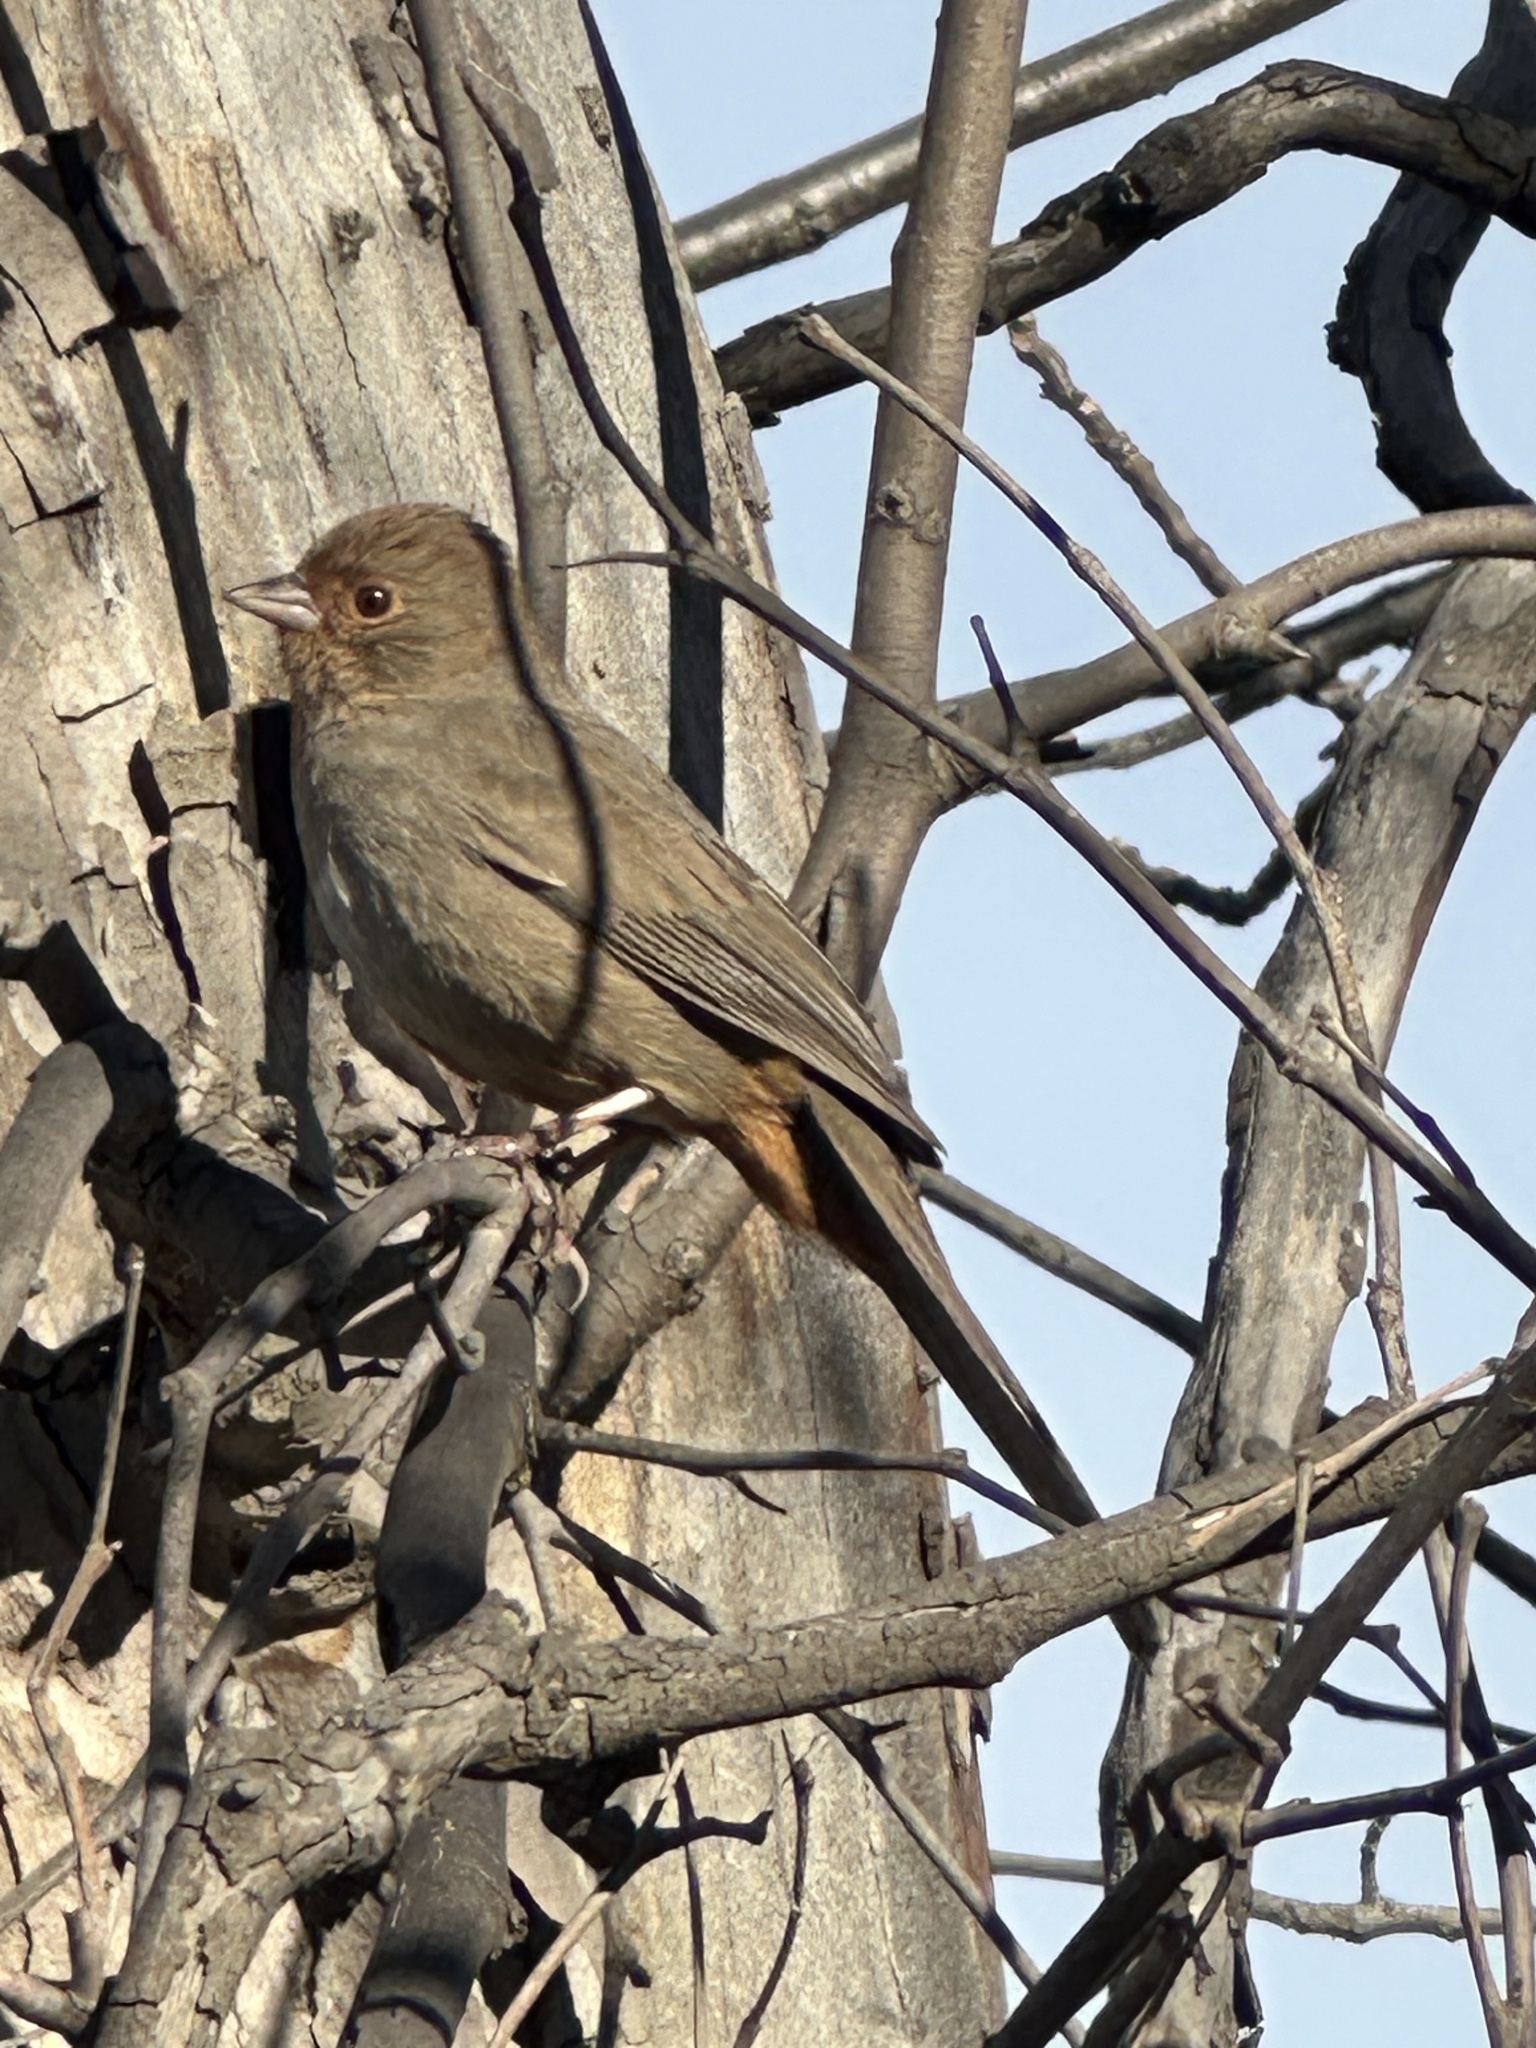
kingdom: Animalia
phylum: Chordata
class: Aves
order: Passeriformes
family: Passerellidae
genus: Melozone
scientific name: Melozone crissalis
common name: California towhee
